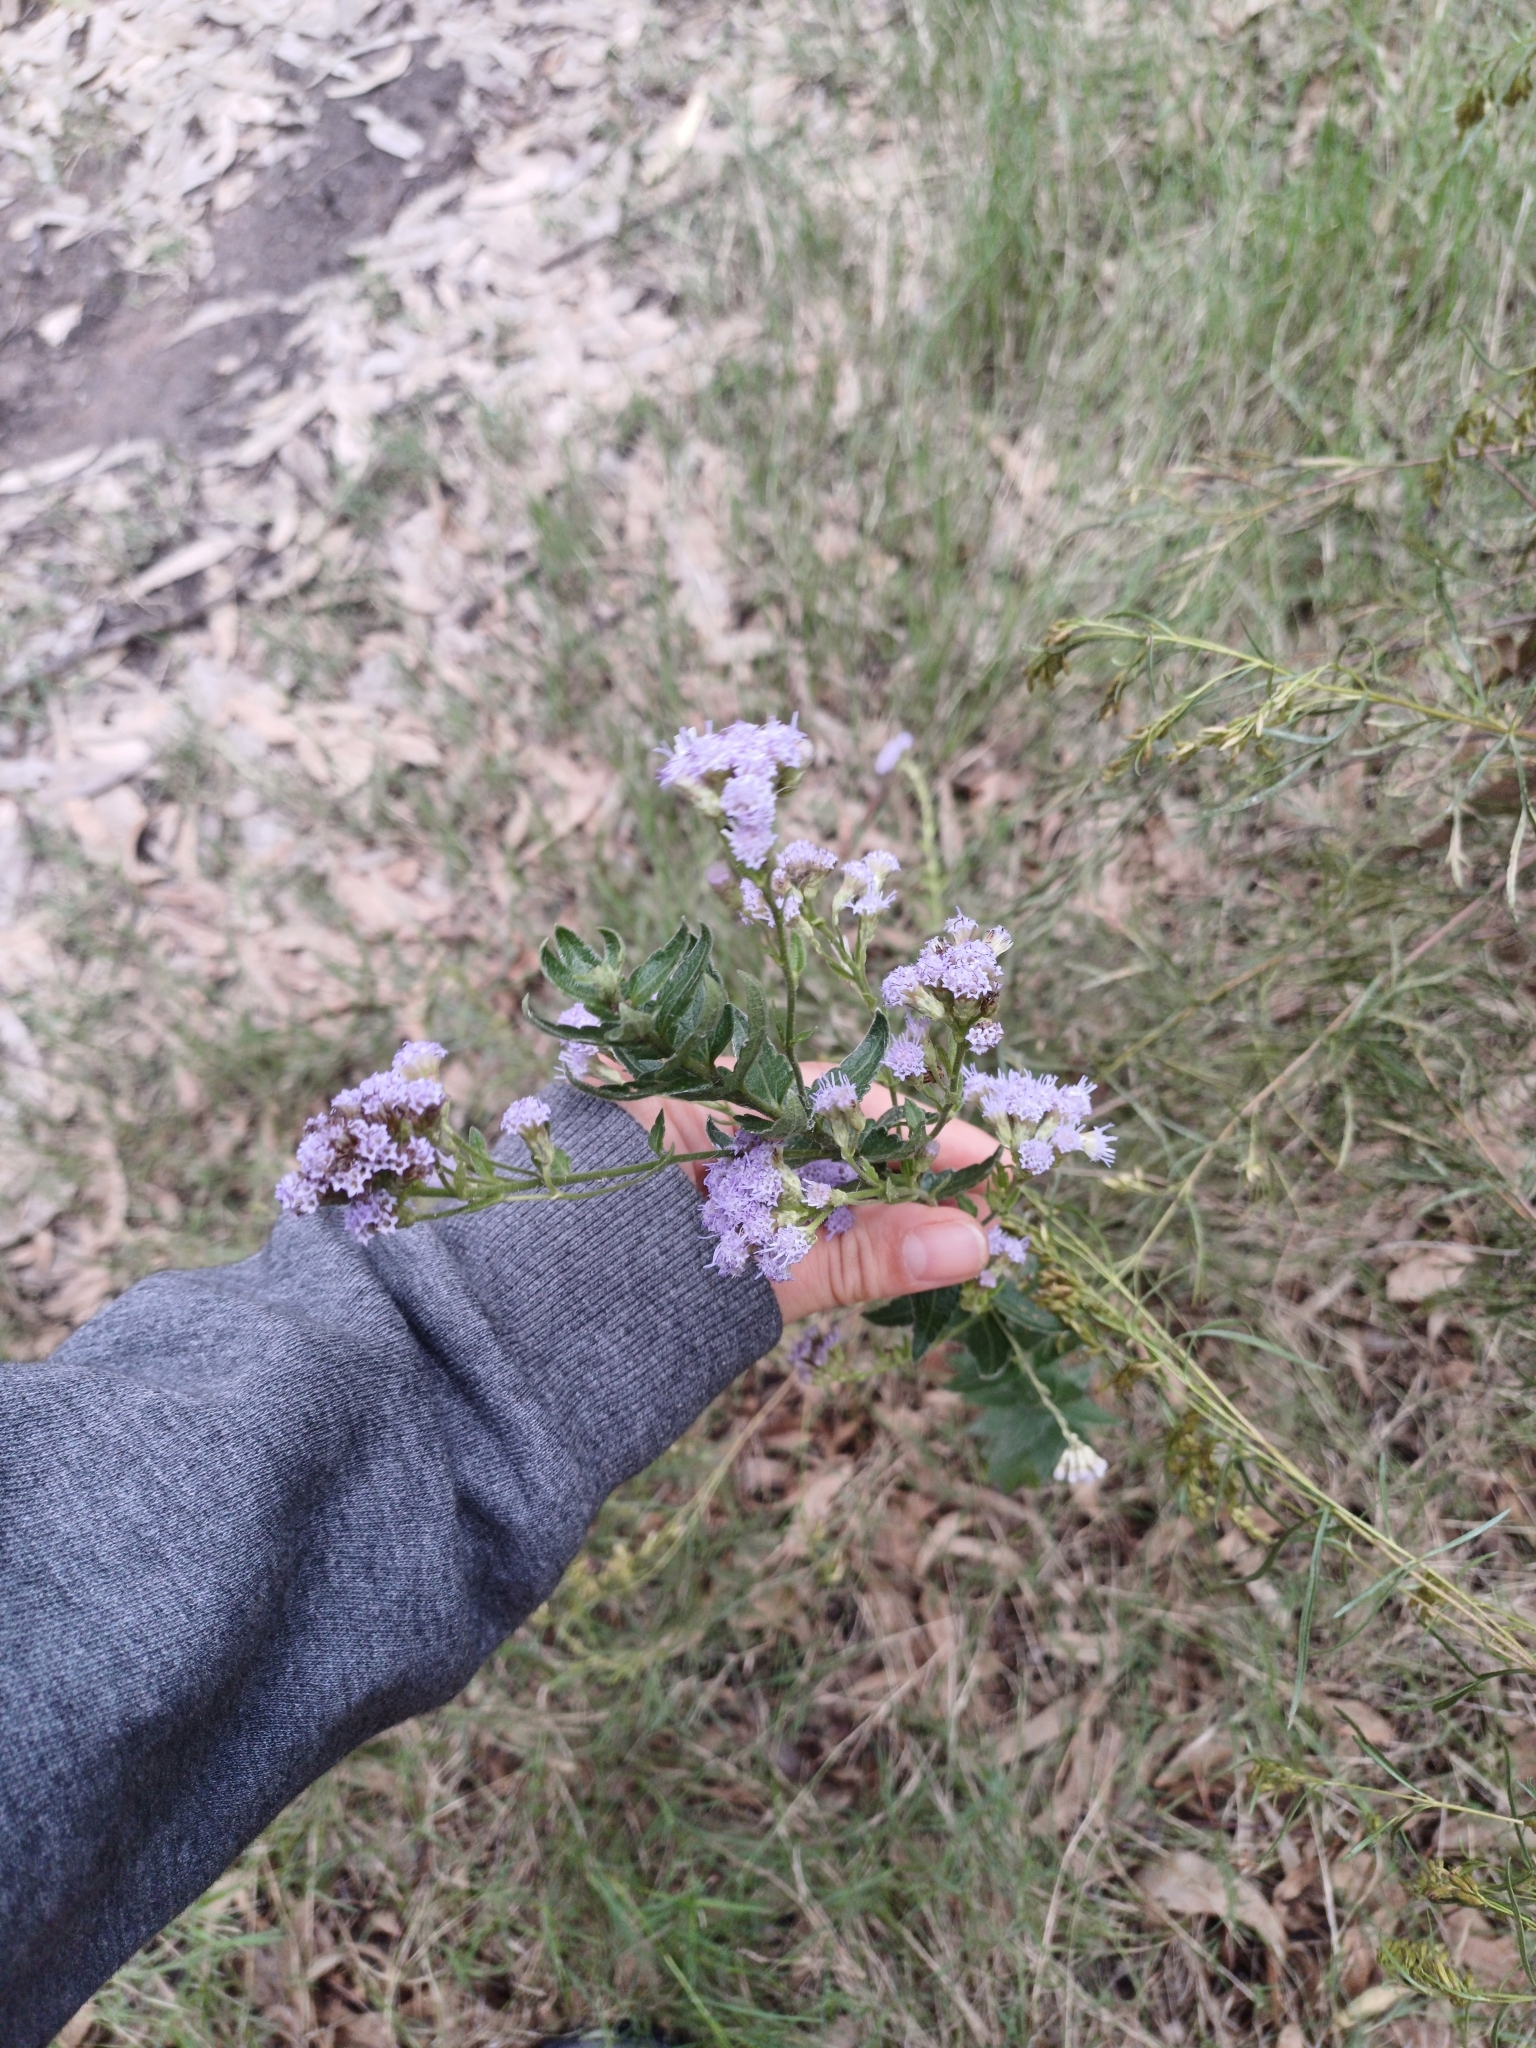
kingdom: Plantae
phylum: Tracheophyta
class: Magnoliopsida
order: Asterales
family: Asteraceae
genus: Chromolaena
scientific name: Chromolaena hirsuta
